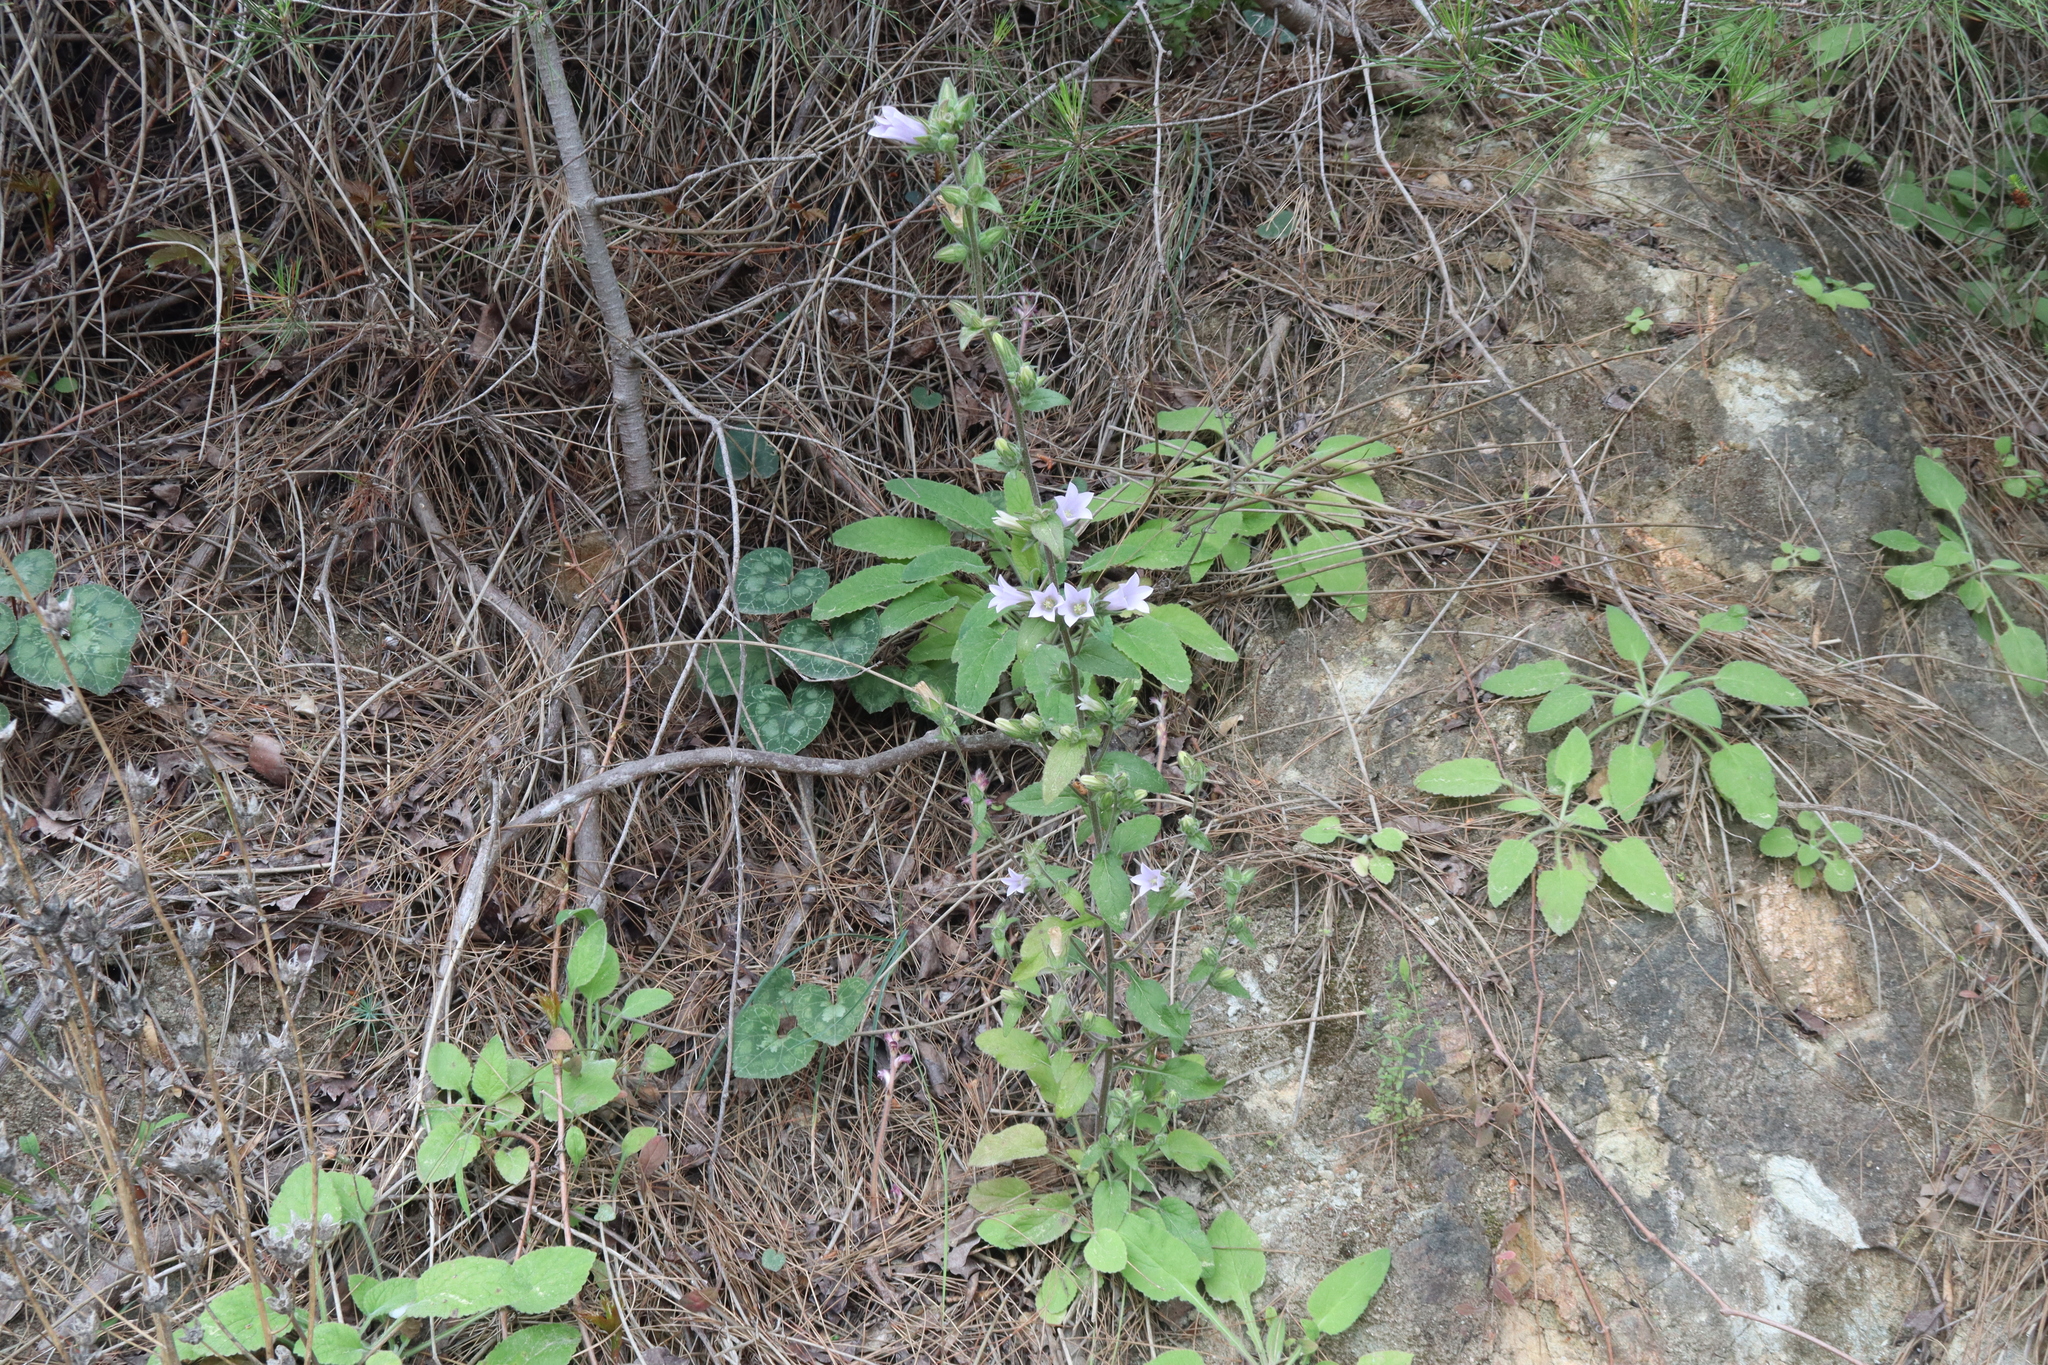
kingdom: Plantae
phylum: Tracheophyta
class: Magnoliopsida
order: Asterales
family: Campanulaceae
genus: Campanula
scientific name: Campanula lyrata
